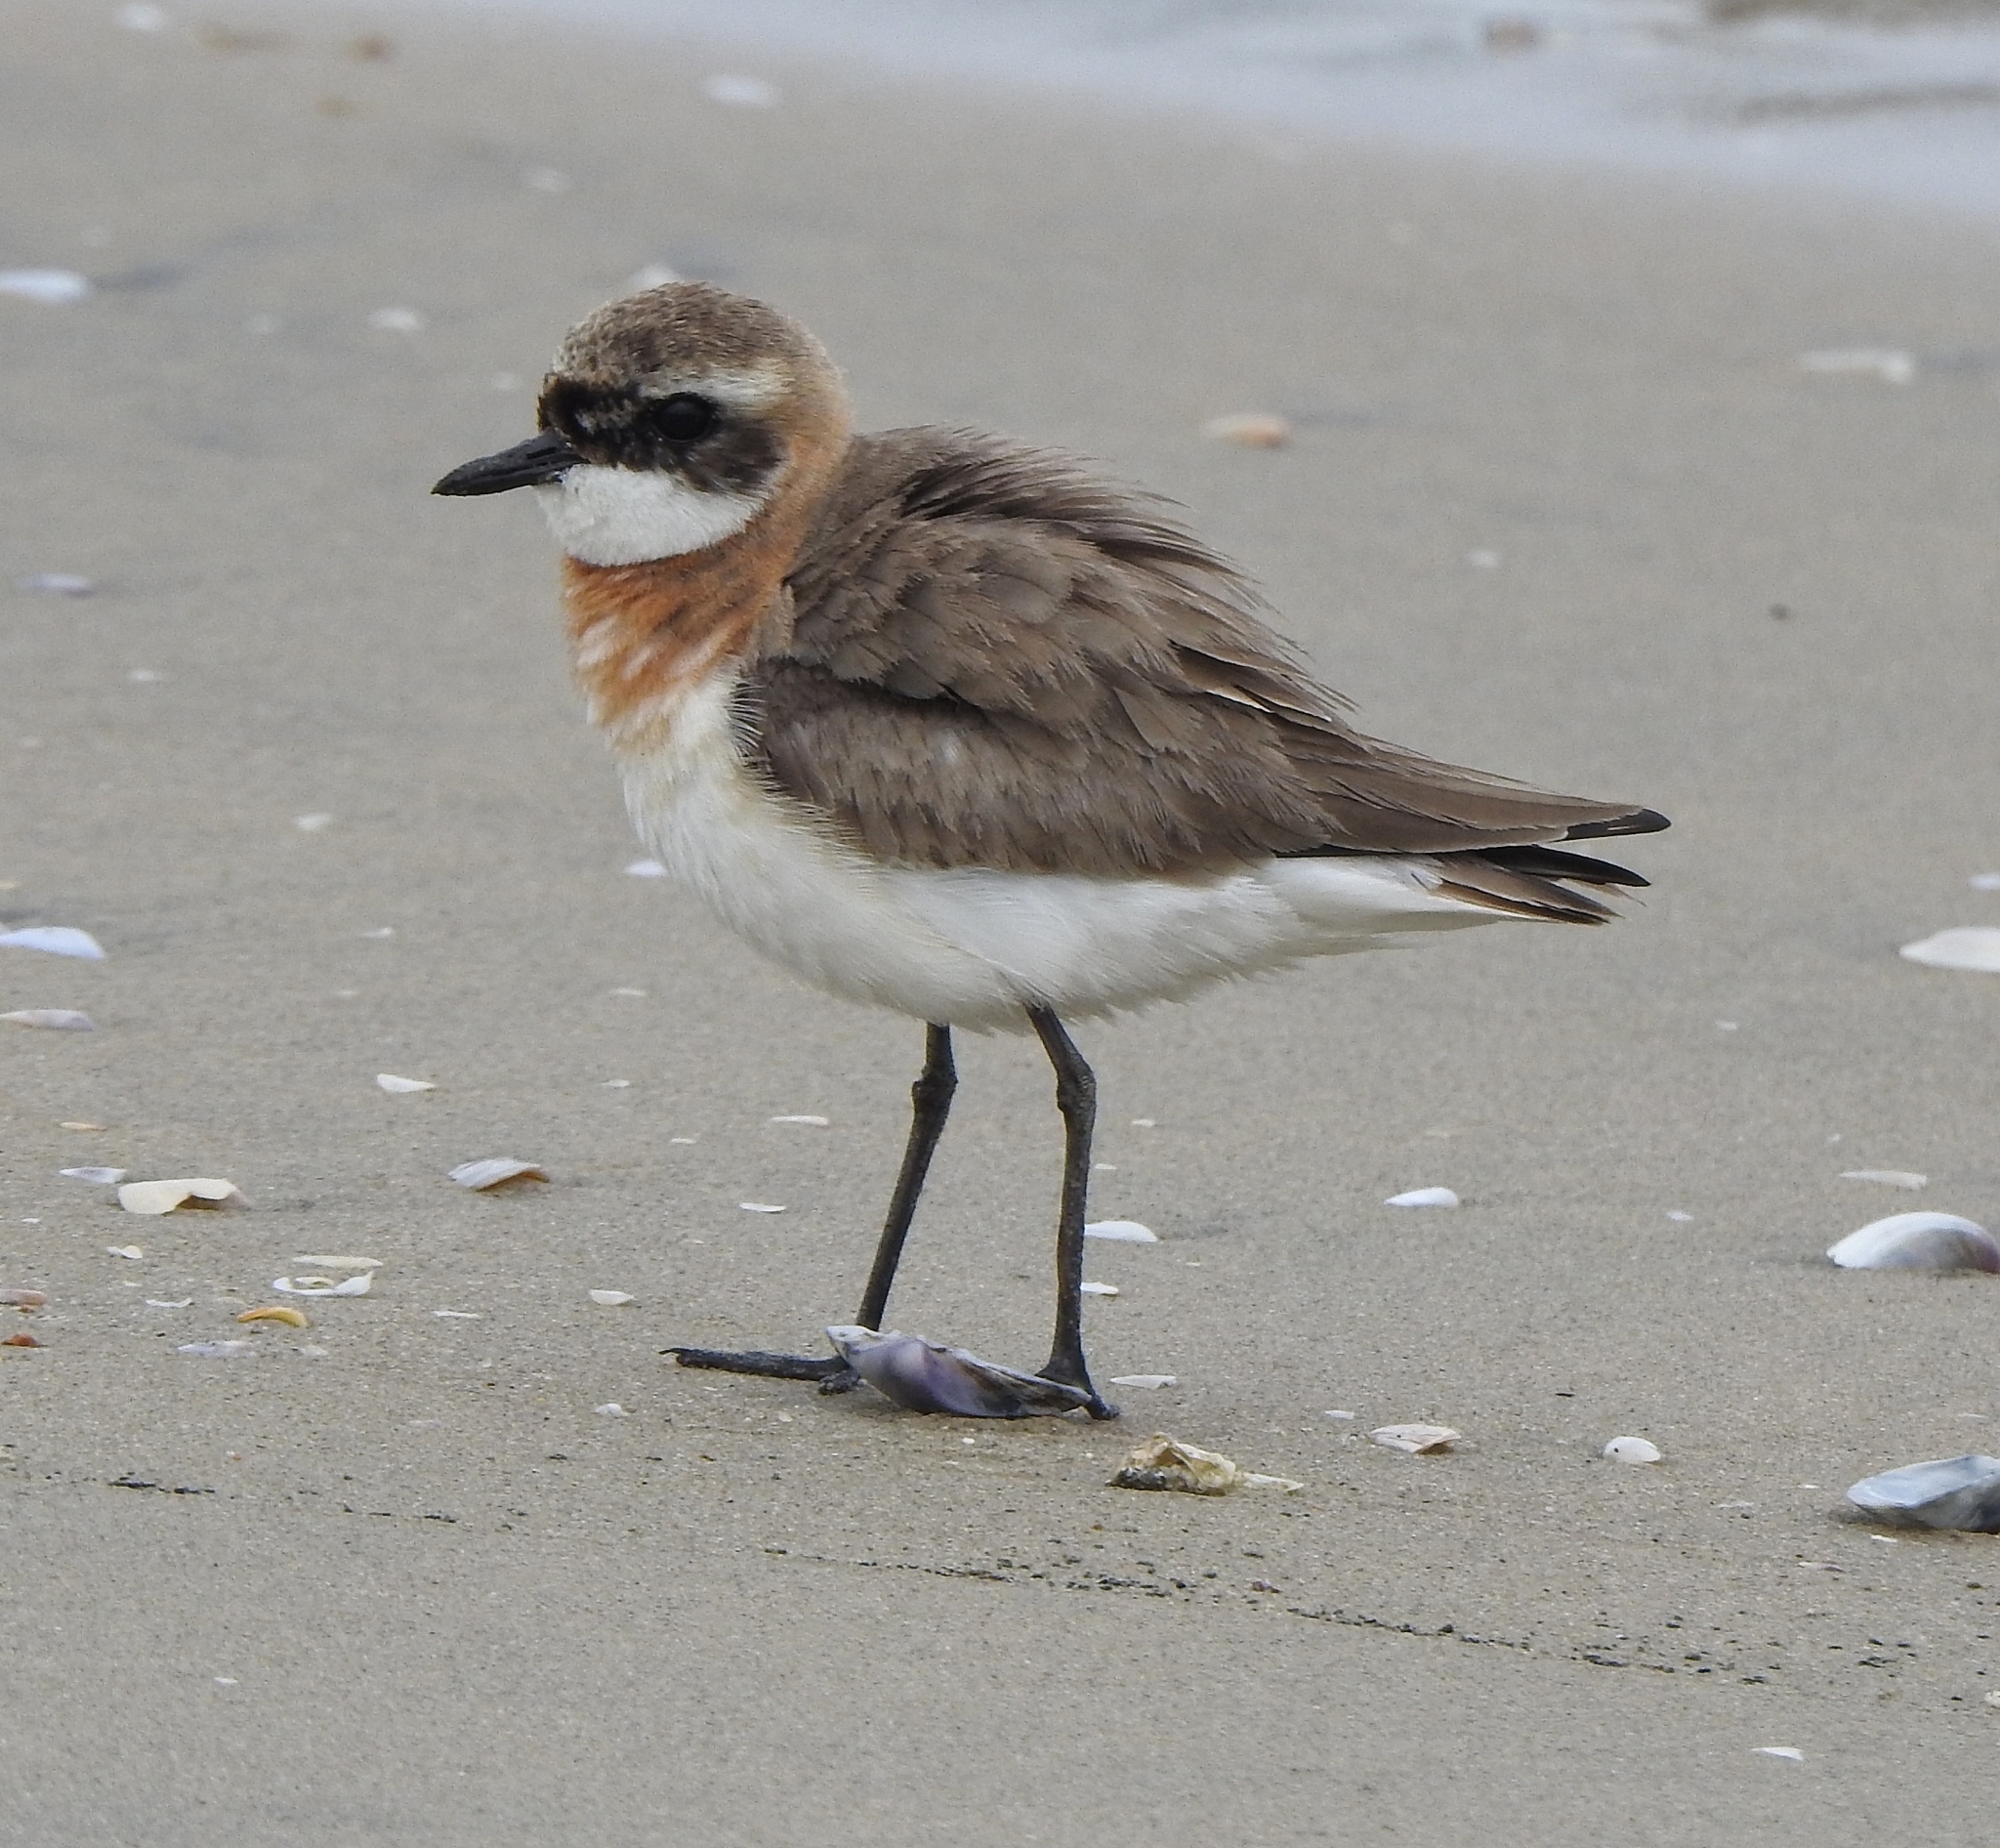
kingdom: Animalia
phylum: Chordata
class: Aves
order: Charadriiformes
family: Charadriidae
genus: Anarhynchus
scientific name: Anarhynchus
